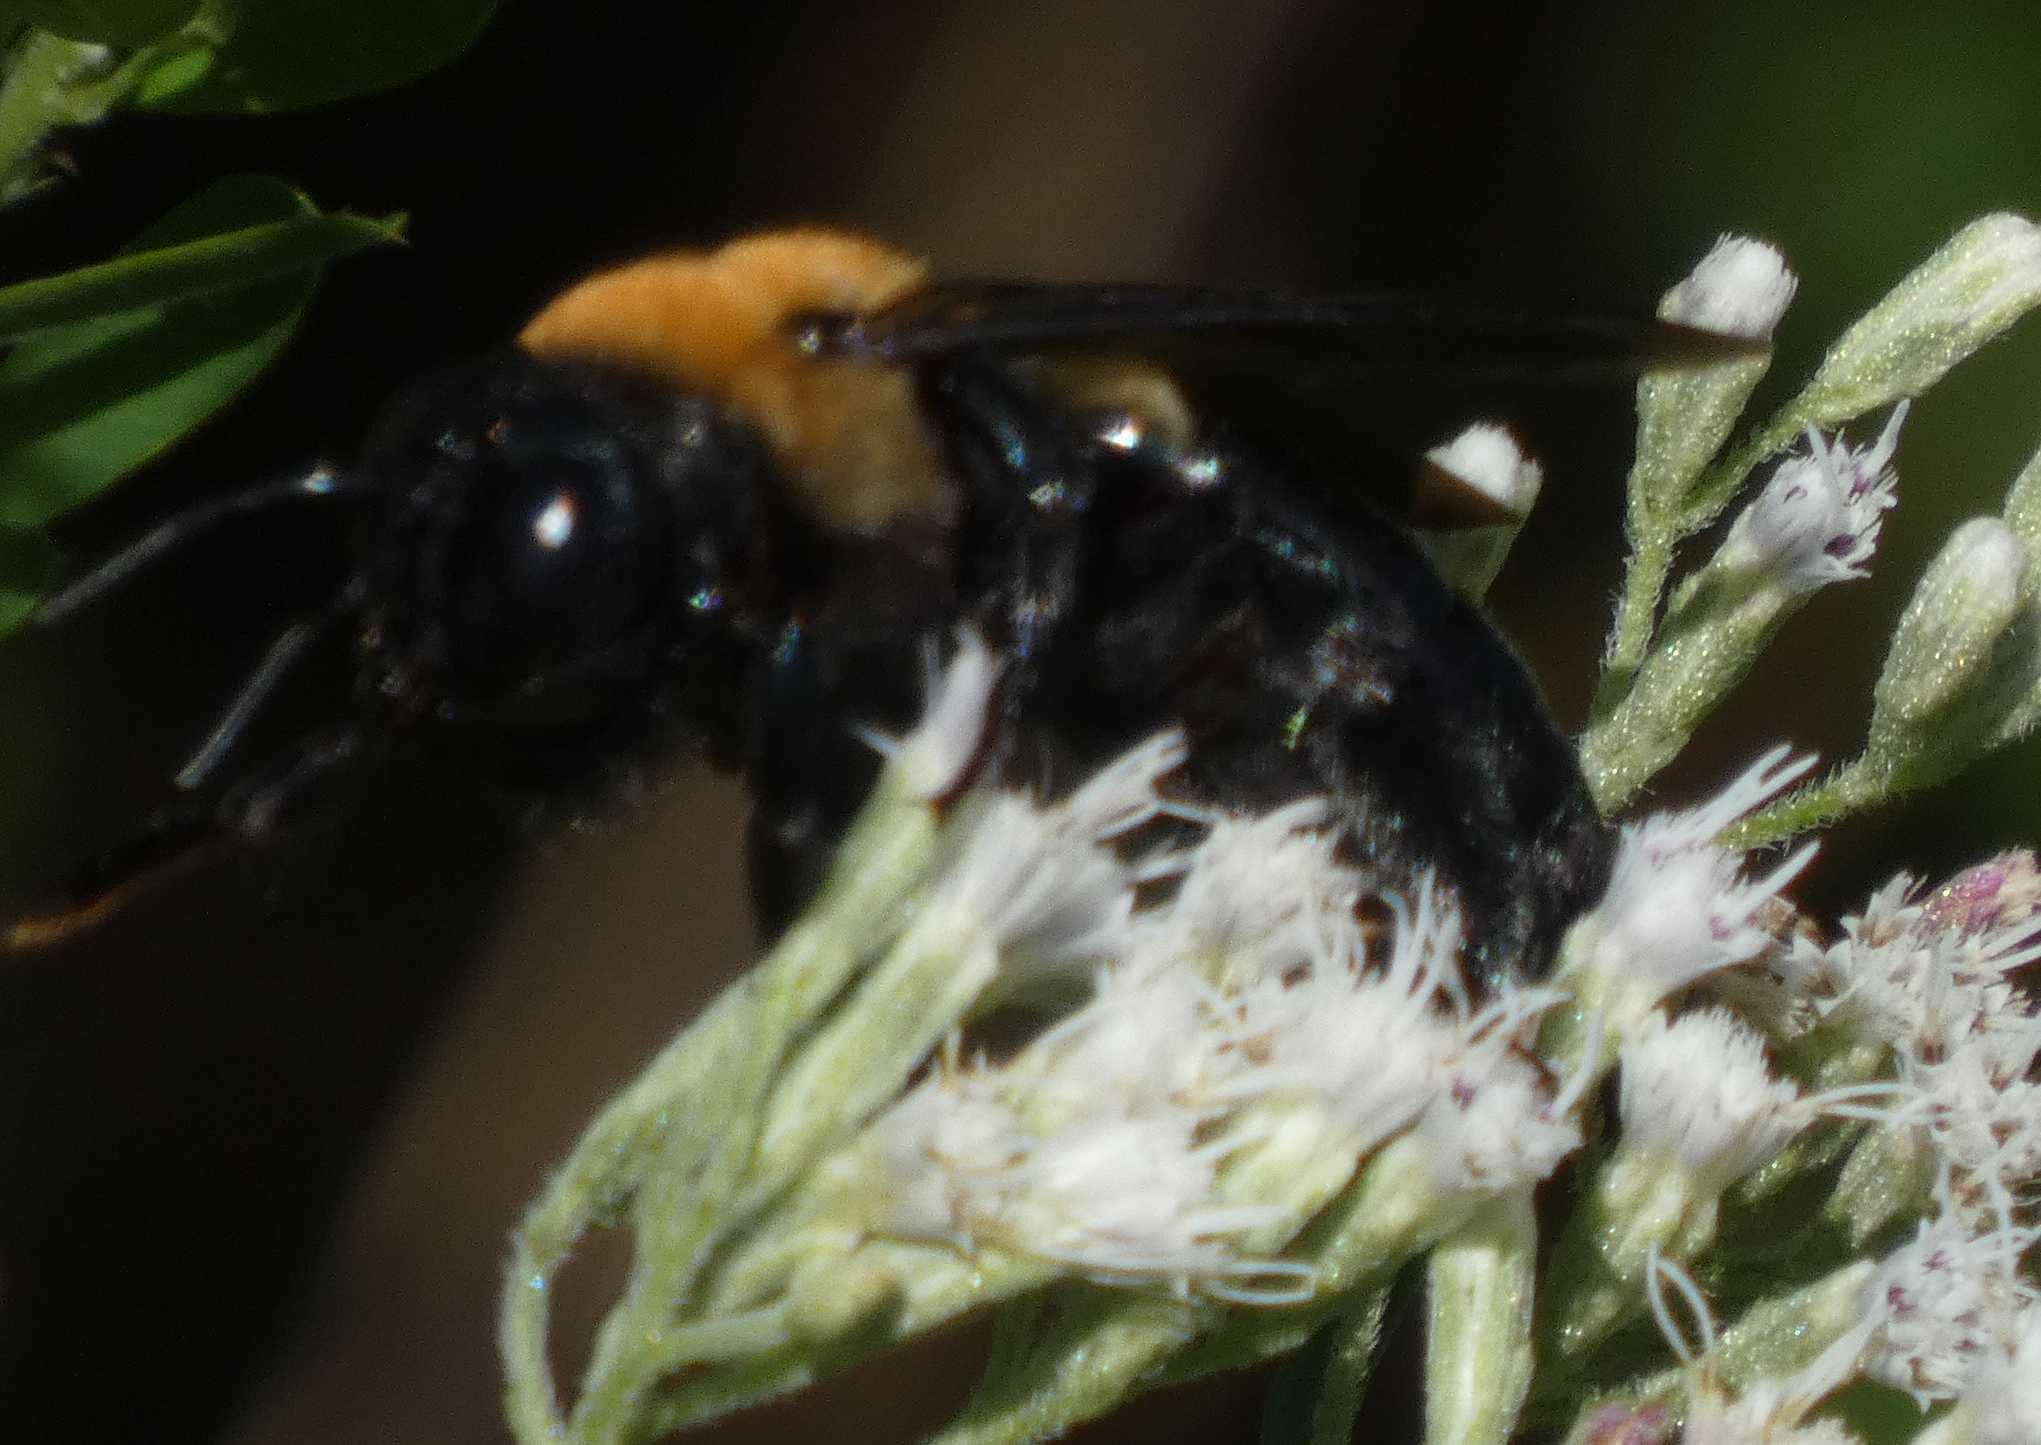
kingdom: Animalia
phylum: Arthropoda
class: Insecta
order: Hymenoptera
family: Apidae
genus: Xylocopa
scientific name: Xylocopa virginica
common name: Carpenter bee
